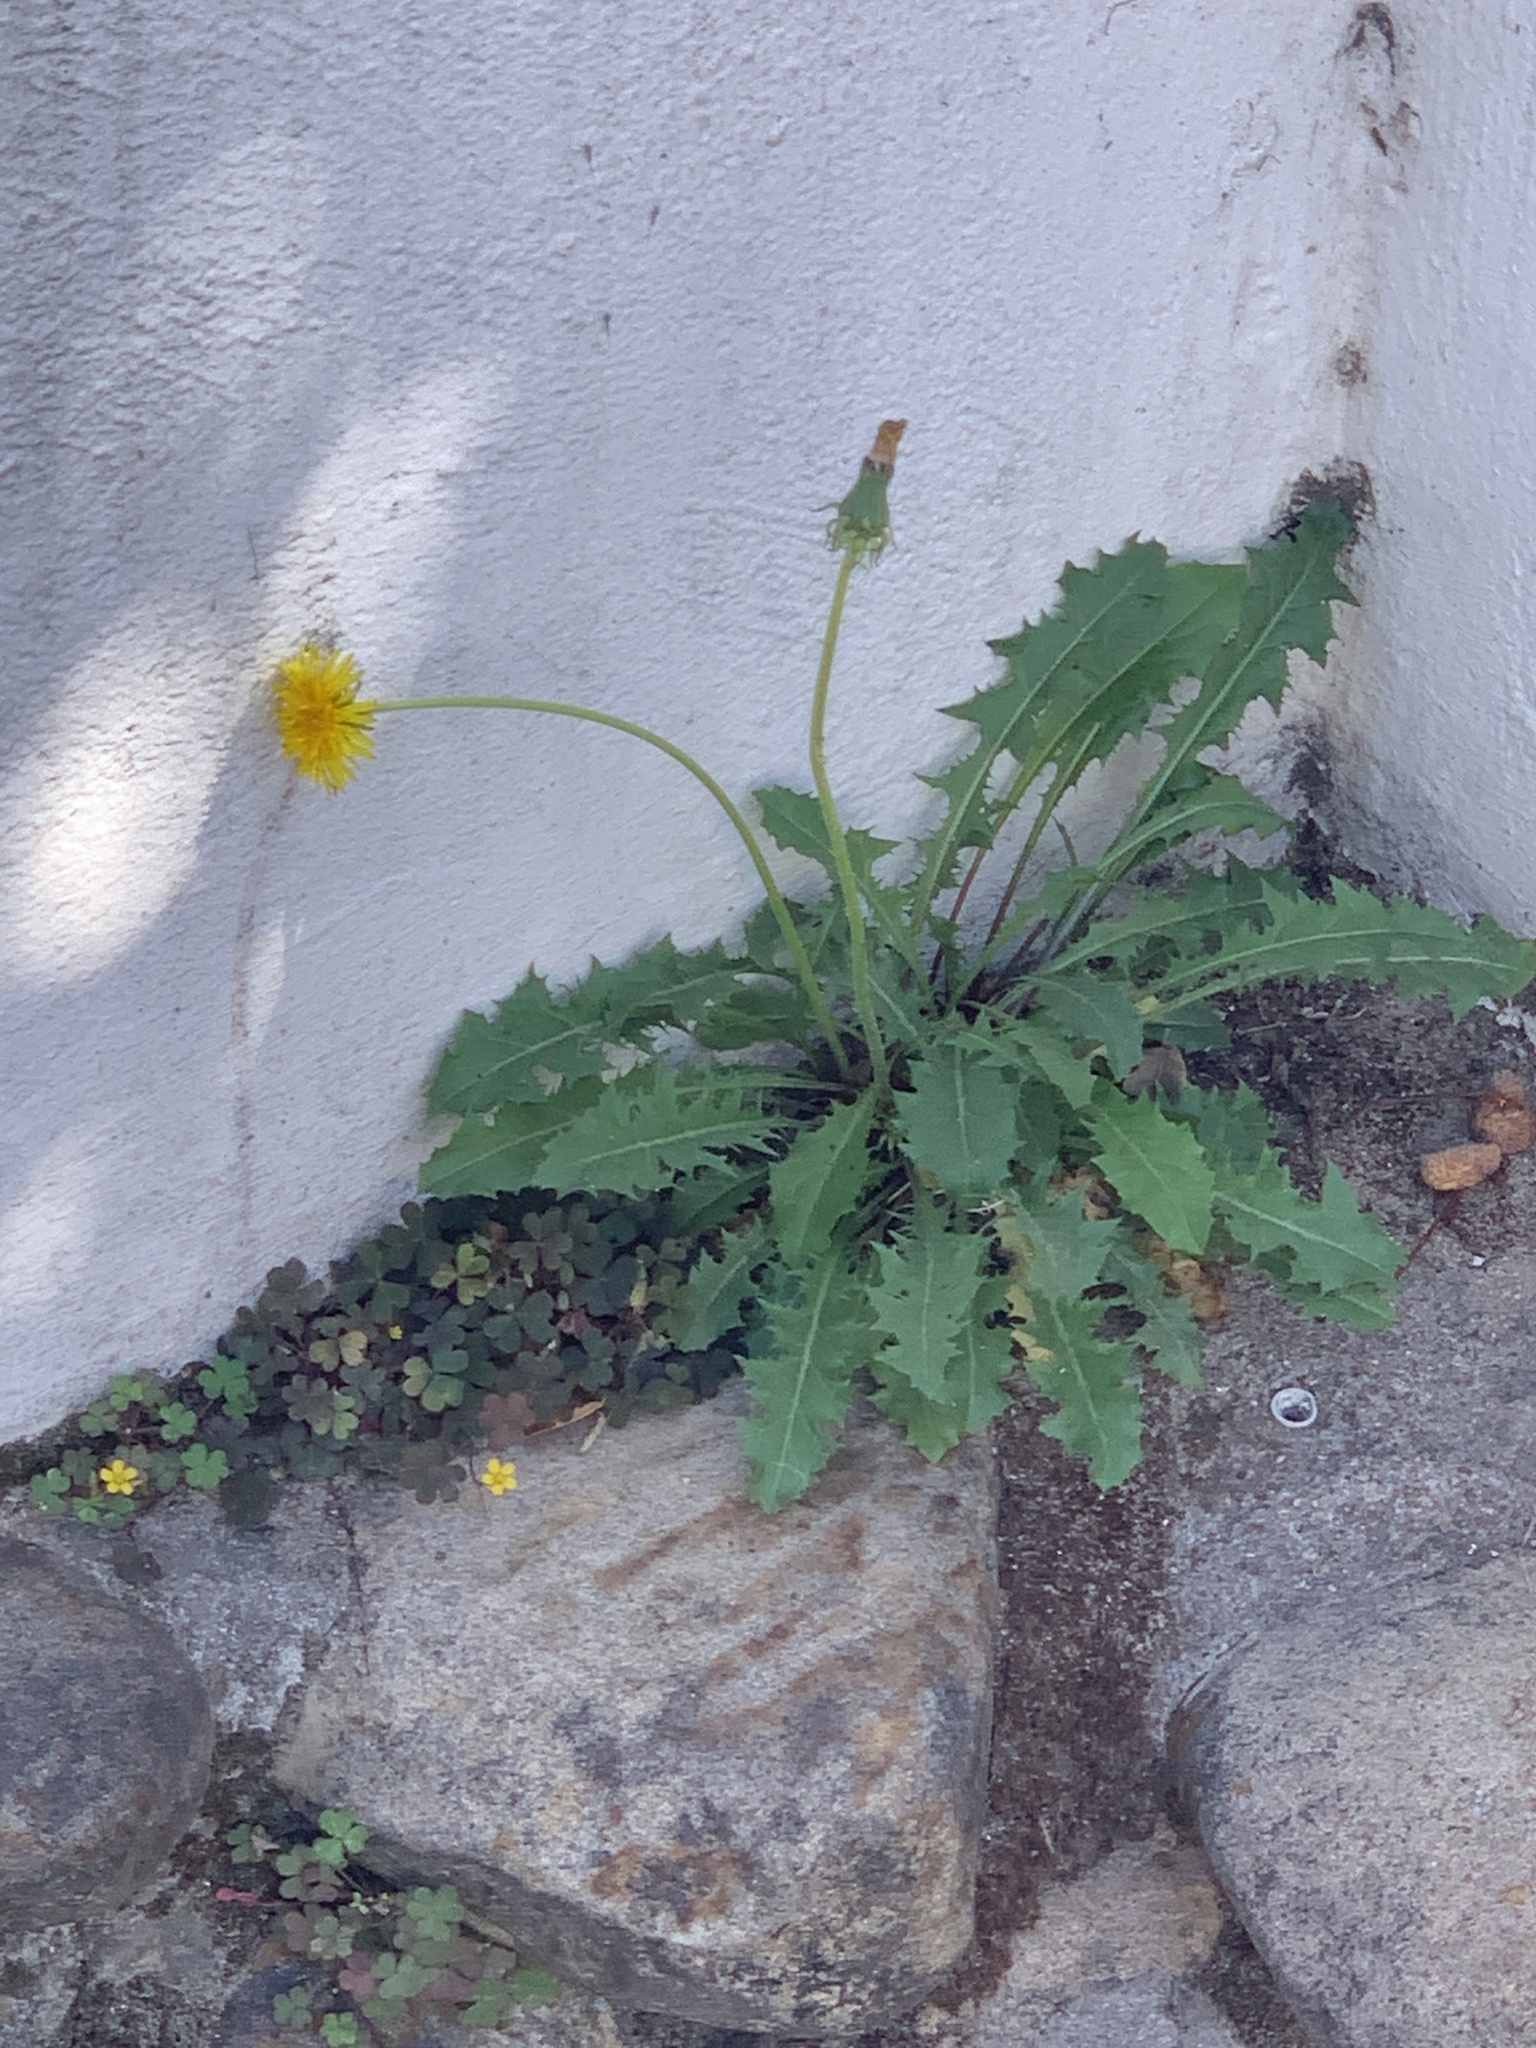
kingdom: Plantae
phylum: Tracheophyta
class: Magnoliopsida
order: Asterales
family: Asteraceae
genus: Taraxacum
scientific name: Taraxacum officinale
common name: Common dandelion
